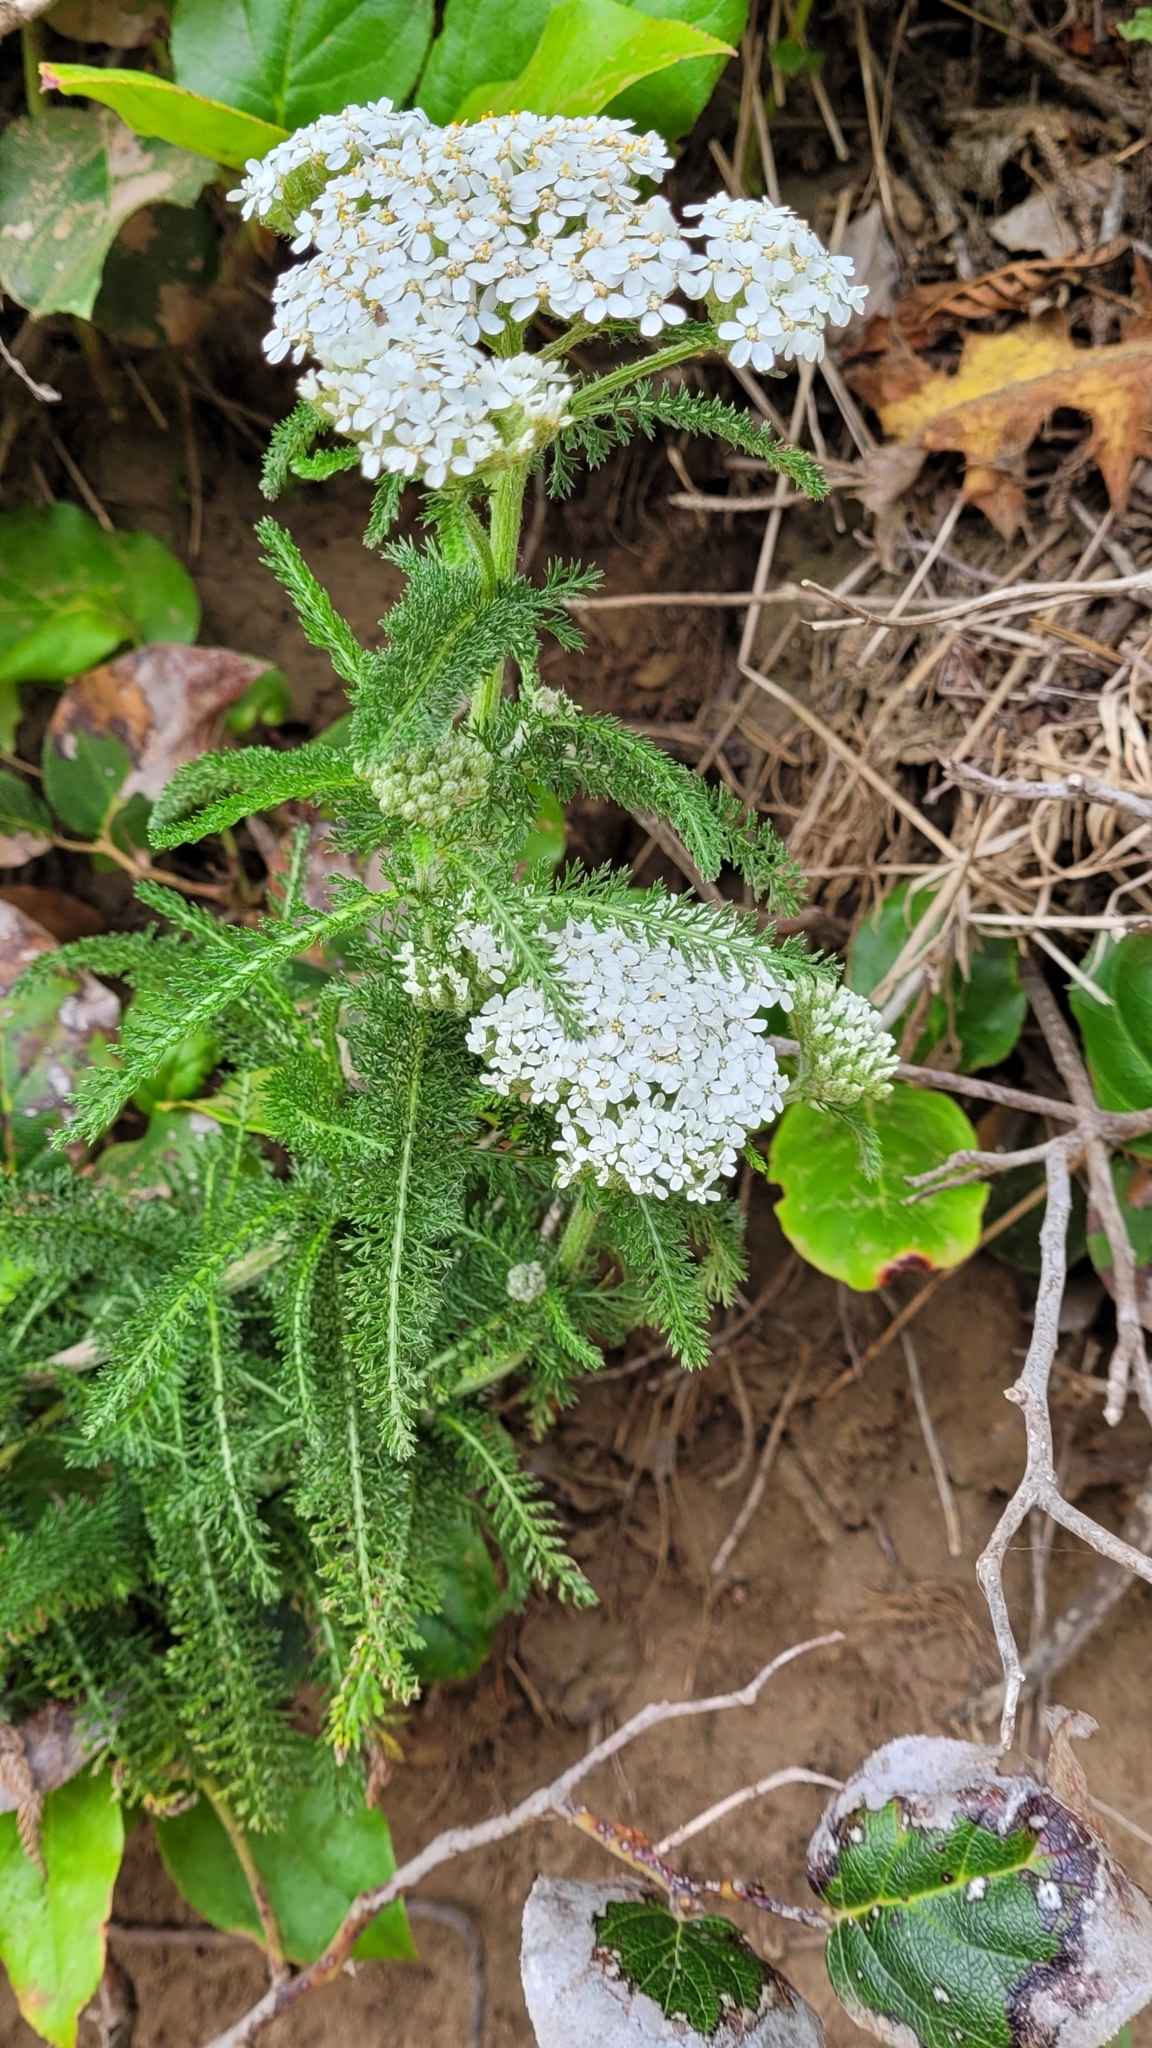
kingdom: Plantae
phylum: Tracheophyta
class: Magnoliopsida
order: Asterales
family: Asteraceae
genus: Achillea
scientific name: Achillea millefolium
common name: Yarrow
